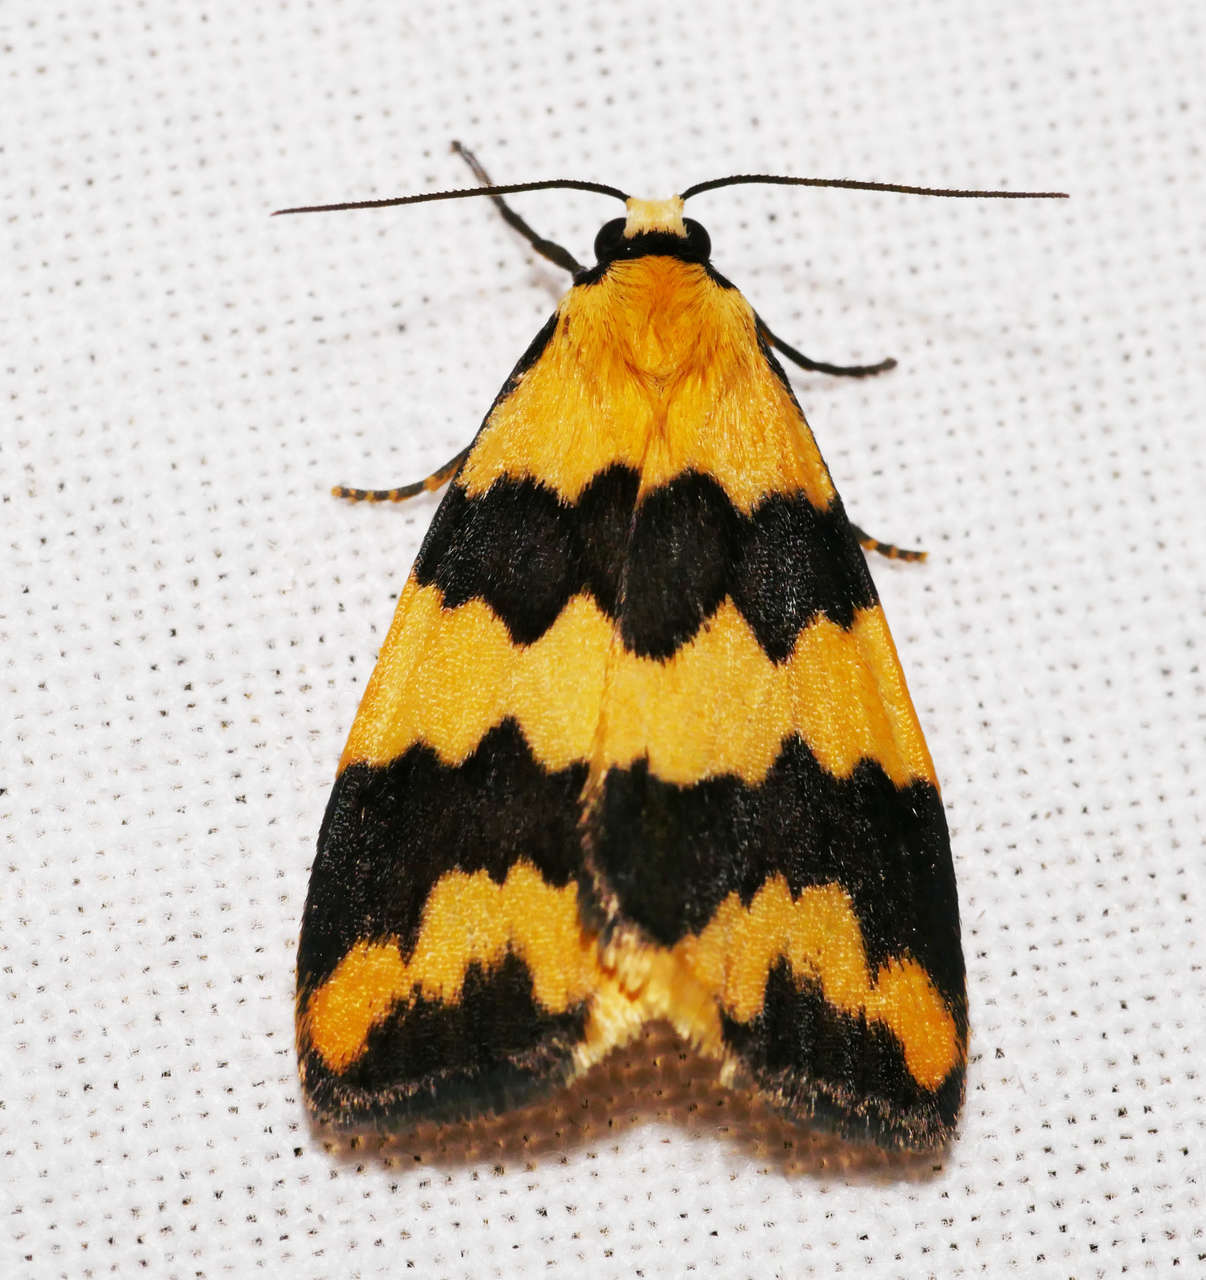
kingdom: Animalia
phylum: Arthropoda
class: Insecta
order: Lepidoptera
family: Erebidae
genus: Termessa
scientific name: Termessa laeta
